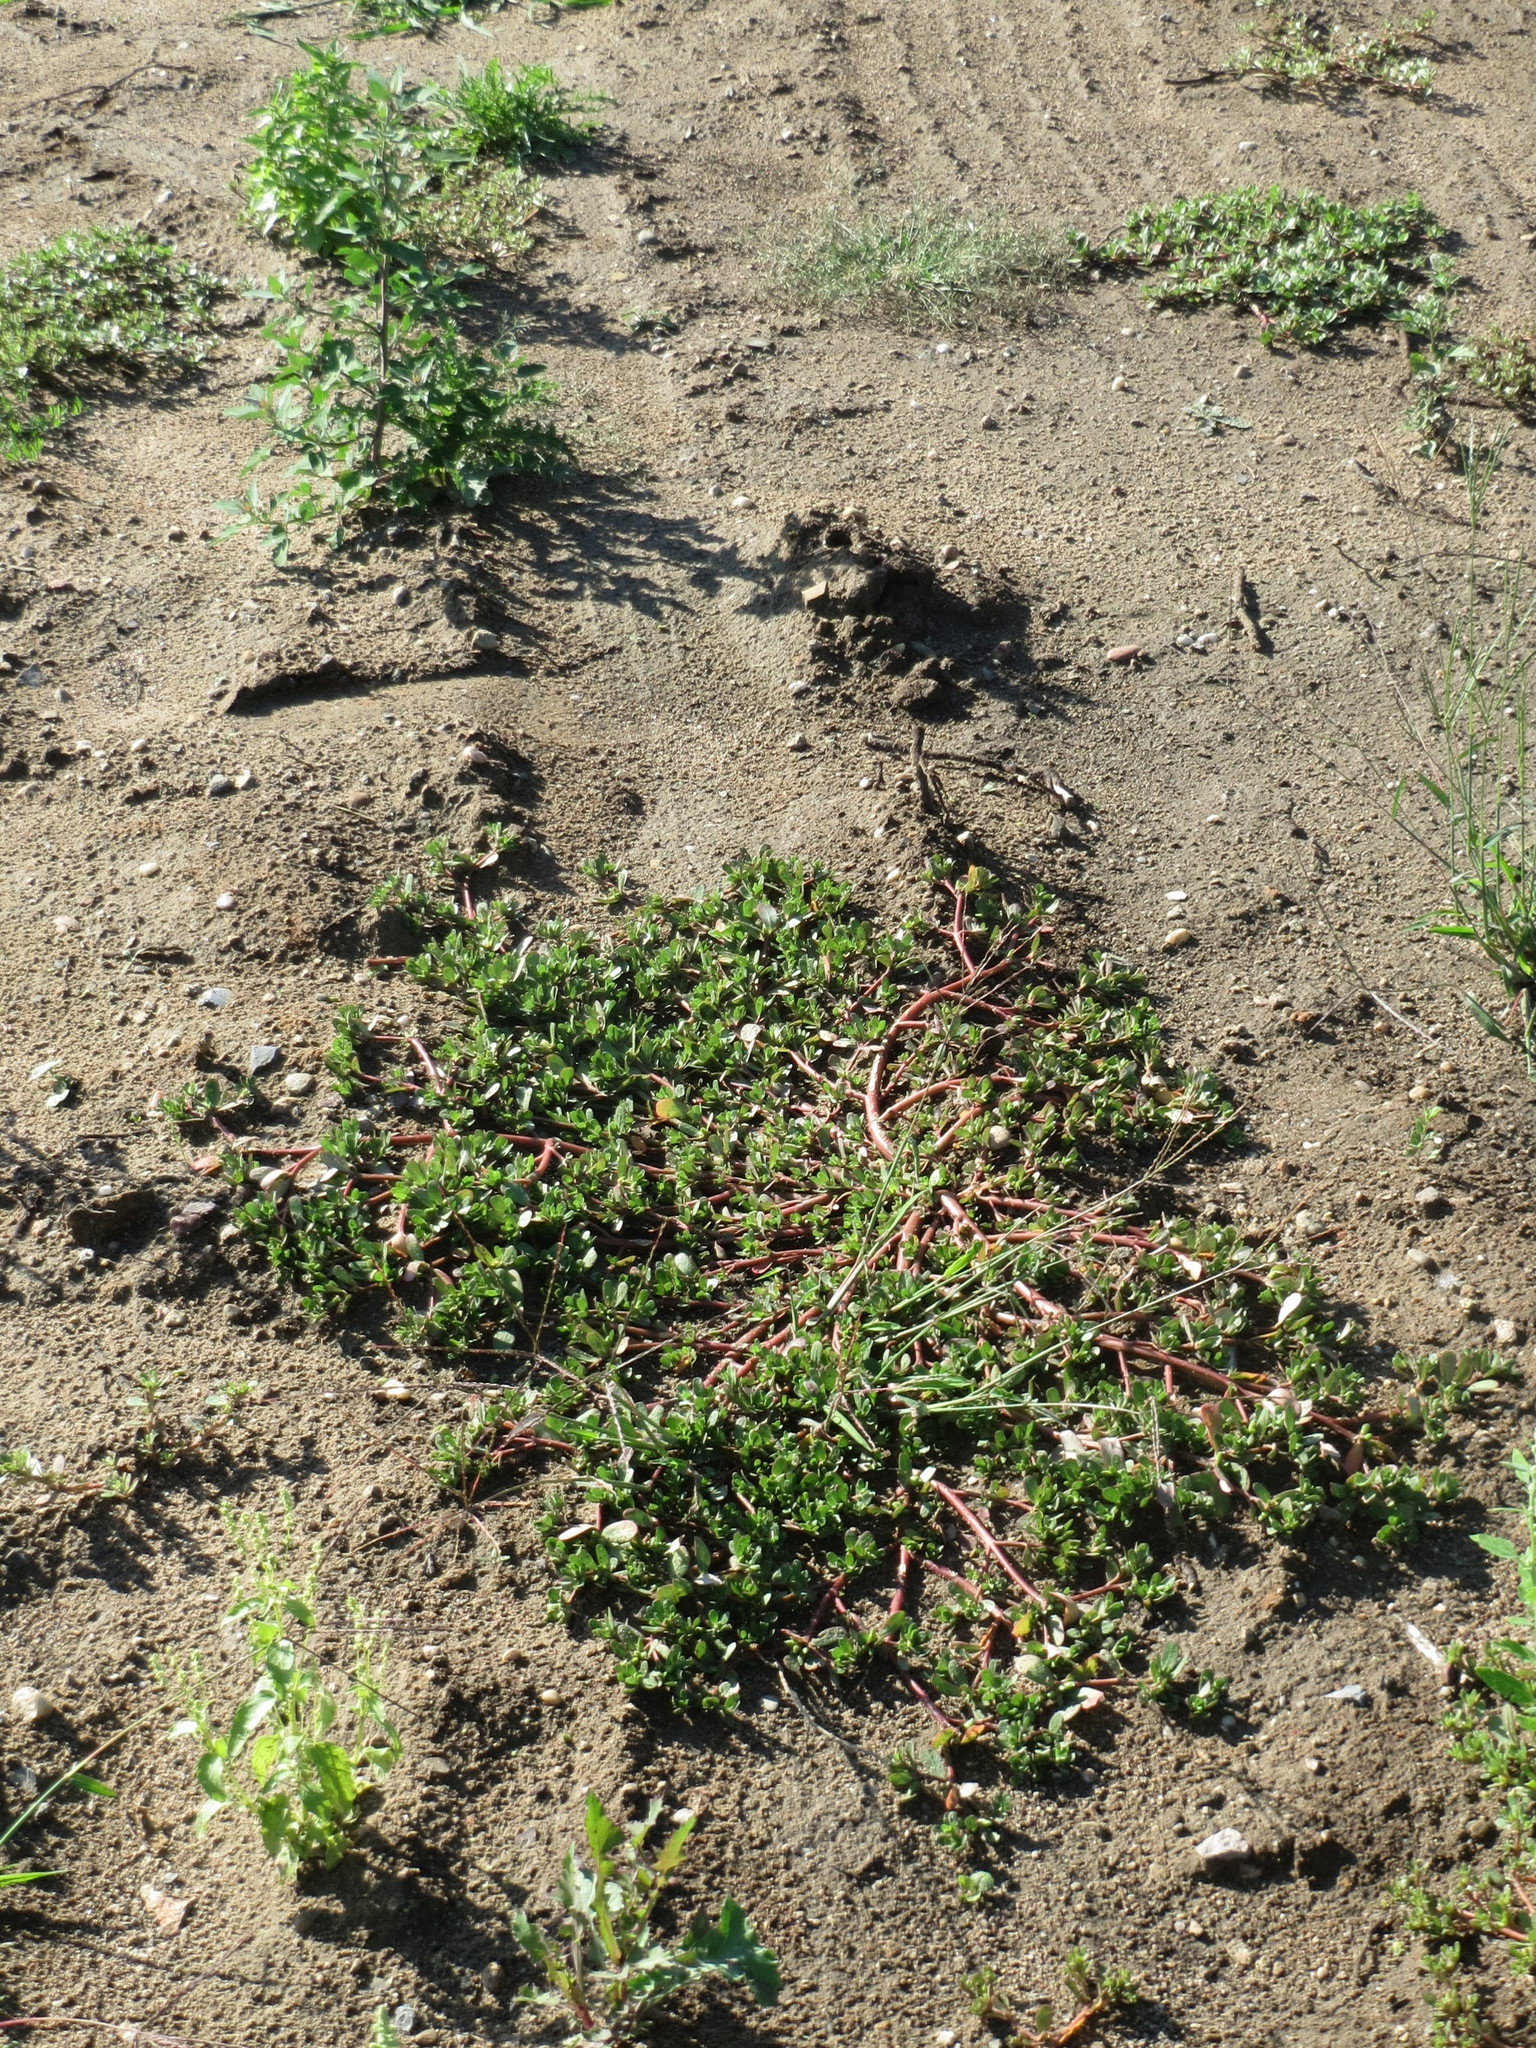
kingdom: Plantae
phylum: Tracheophyta
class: Magnoliopsida
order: Caryophyllales
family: Portulacaceae
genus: Portulaca
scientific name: Portulaca oleracea
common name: Common purslane
